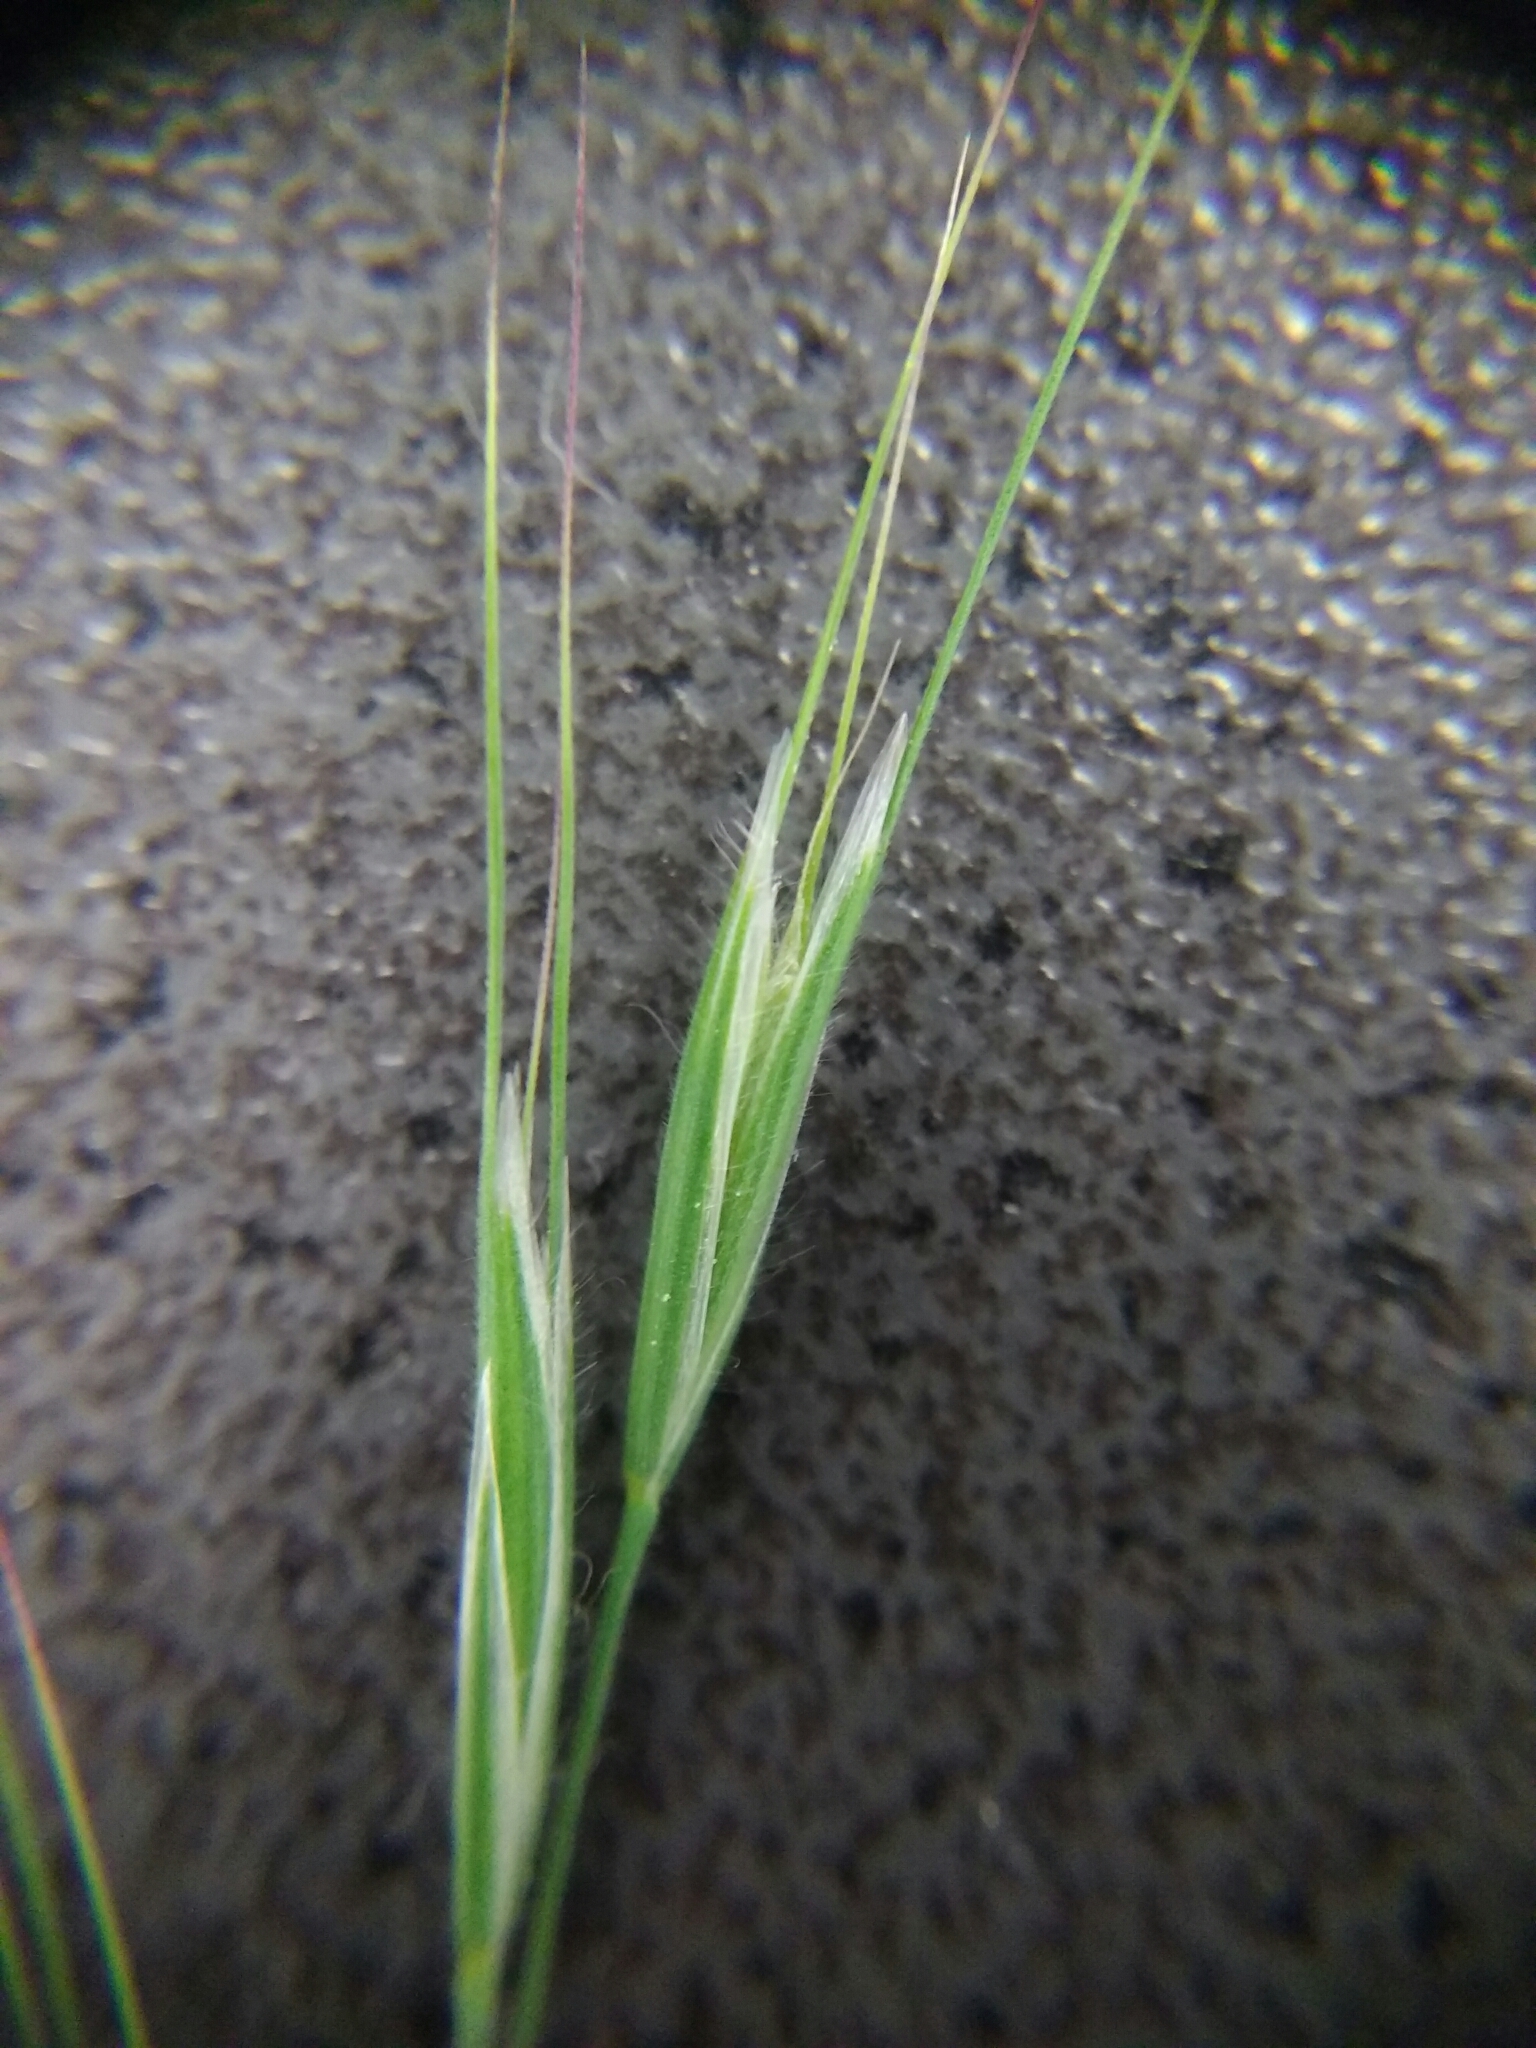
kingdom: Plantae
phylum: Tracheophyta
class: Liliopsida
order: Poales
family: Poaceae
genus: Bromus
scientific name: Bromus tectorum
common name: Cheatgrass
